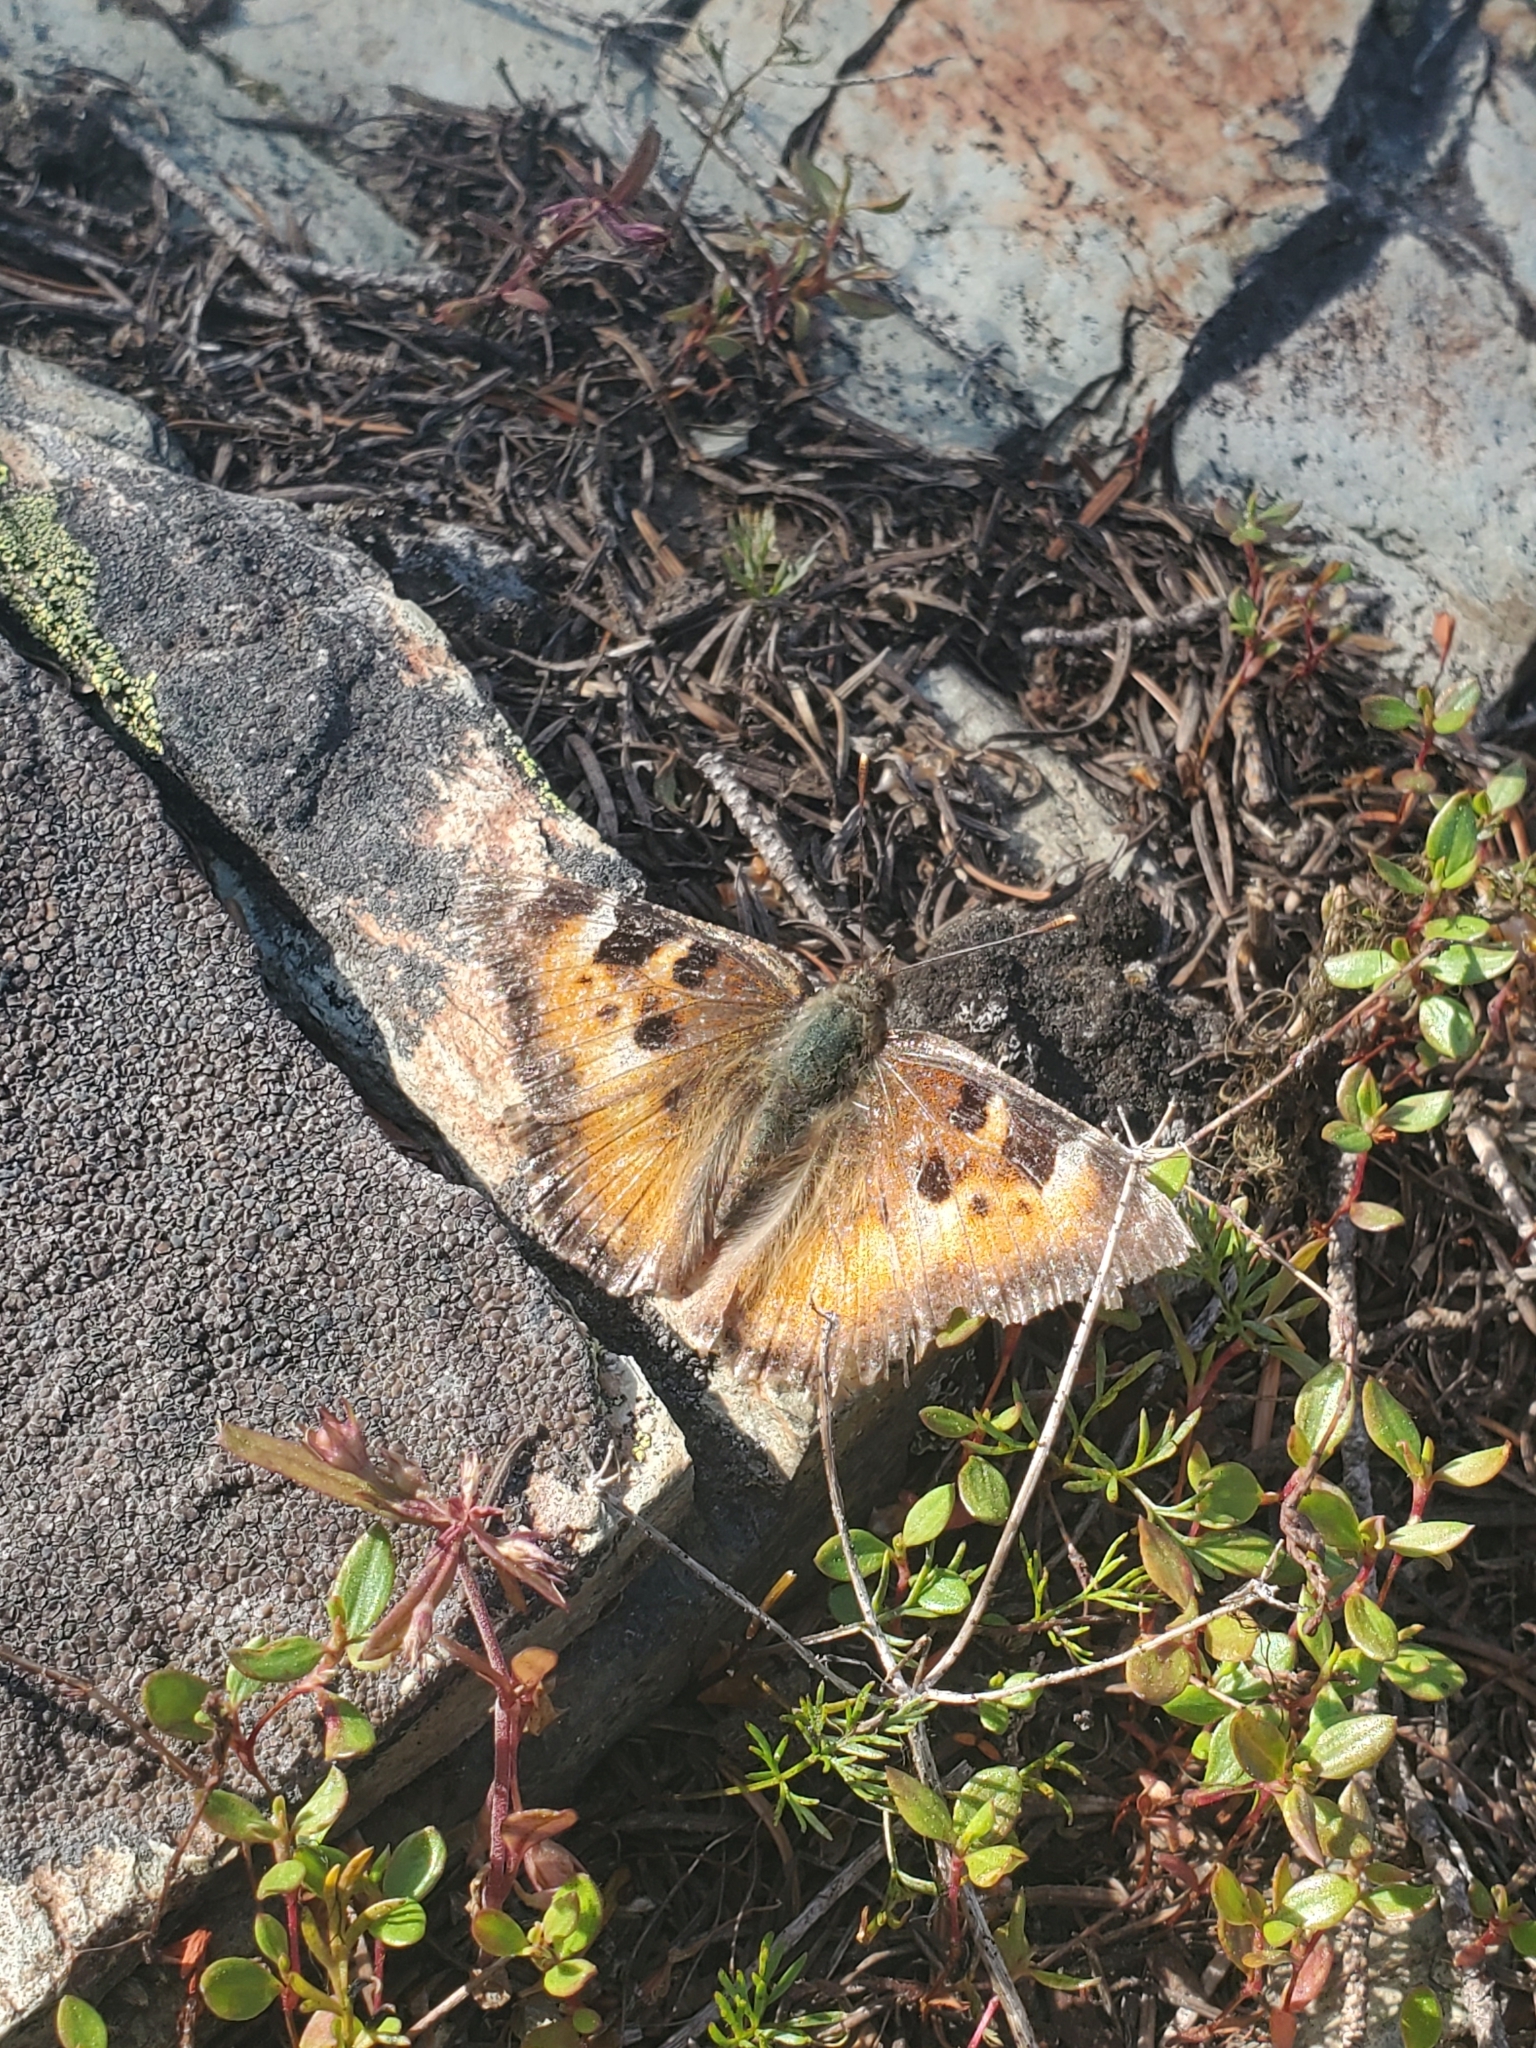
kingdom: Animalia
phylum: Arthropoda
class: Insecta
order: Lepidoptera
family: Nymphalidae
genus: Nymphalis
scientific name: Nymphalis californica
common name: California tortoiseshell
